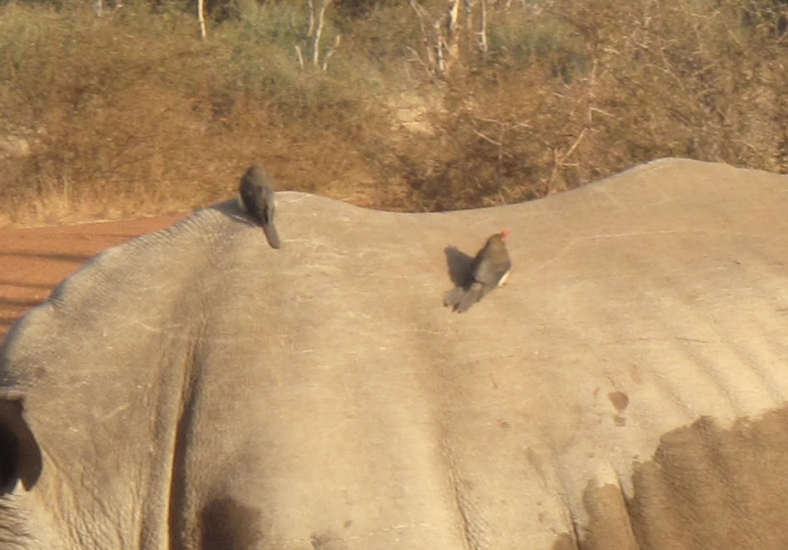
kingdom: Animalia
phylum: Chordata
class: Aves
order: Passeriformes
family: Buphagidae
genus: Buphagus
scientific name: Buphagus erythrorhynchus
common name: Red-billed oxpecker
